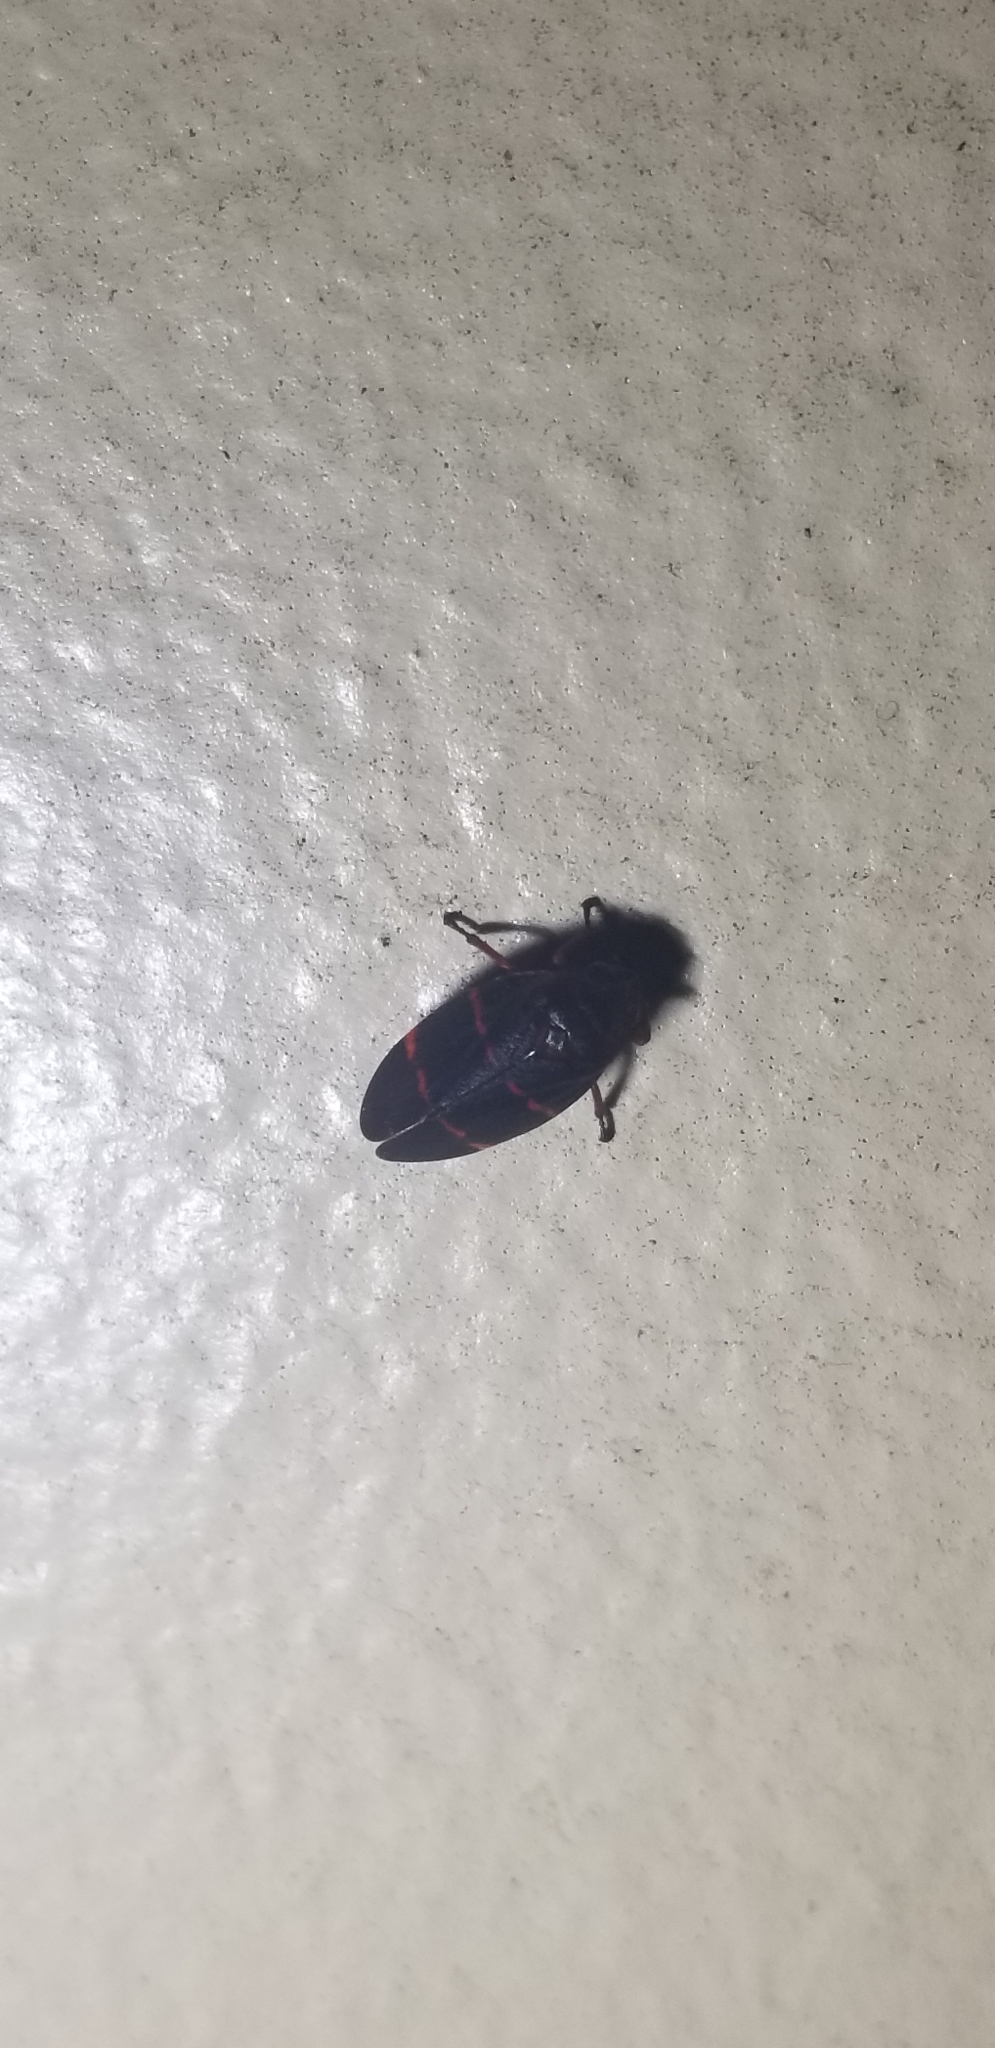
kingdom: Animalia
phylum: Arthropoda
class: Insecta
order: Hemiptera
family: Cercopidae
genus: Prosapia
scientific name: Prosapia bicincta
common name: Twolined spittlebug
